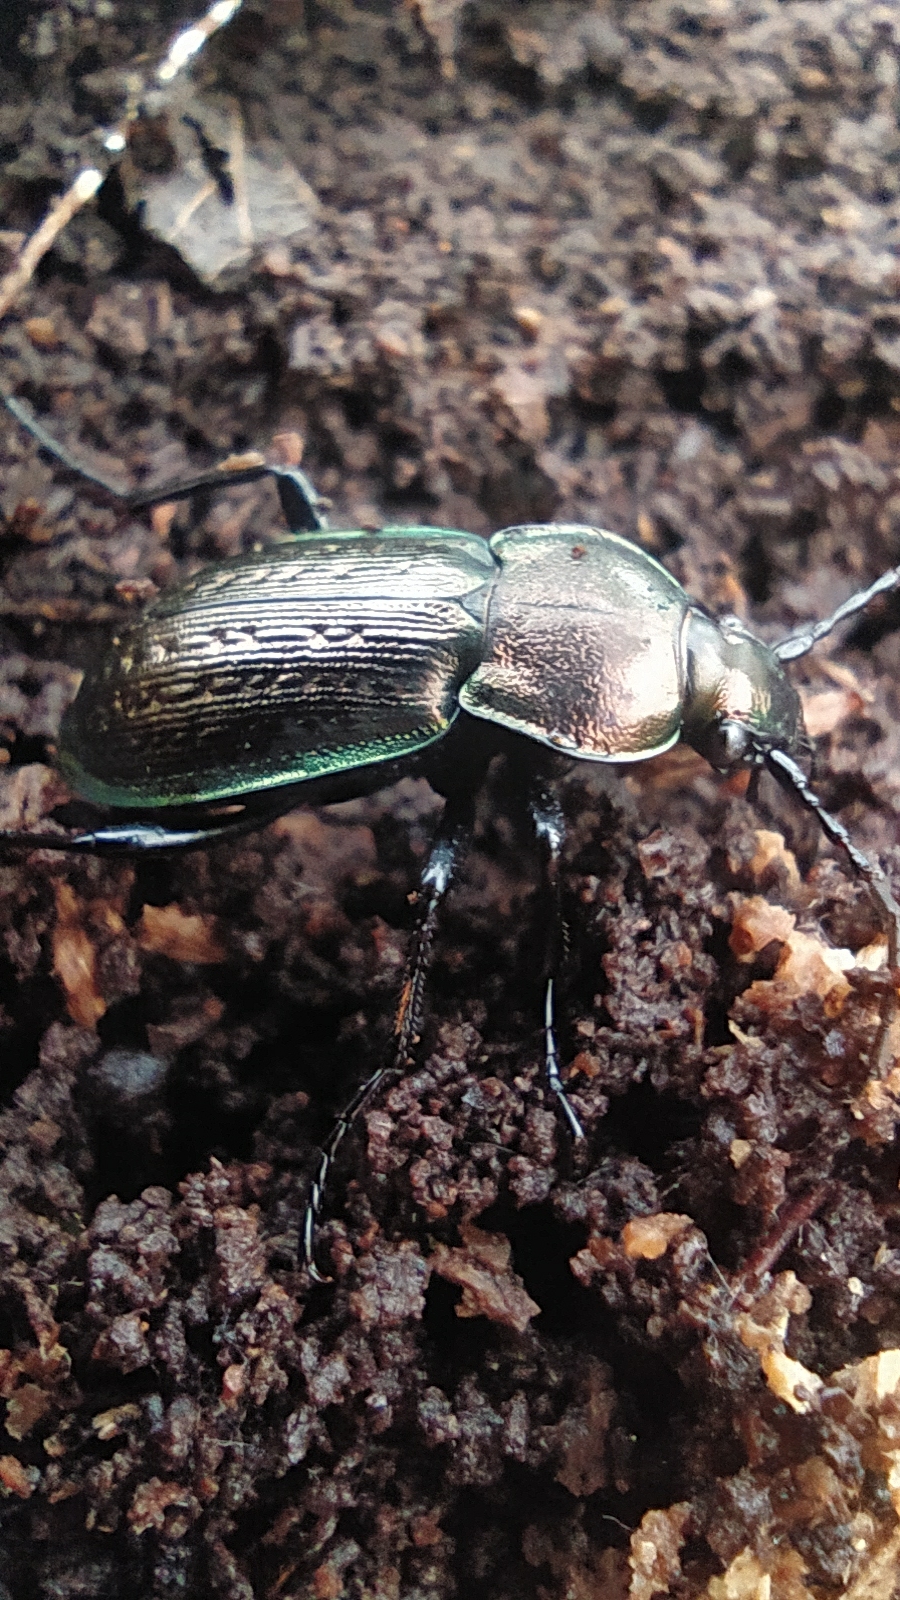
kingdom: Animalia
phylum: Arthropoda
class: Insecta
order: Coleoptera
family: Carabidae
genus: Carabus
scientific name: Carabus arvensis
